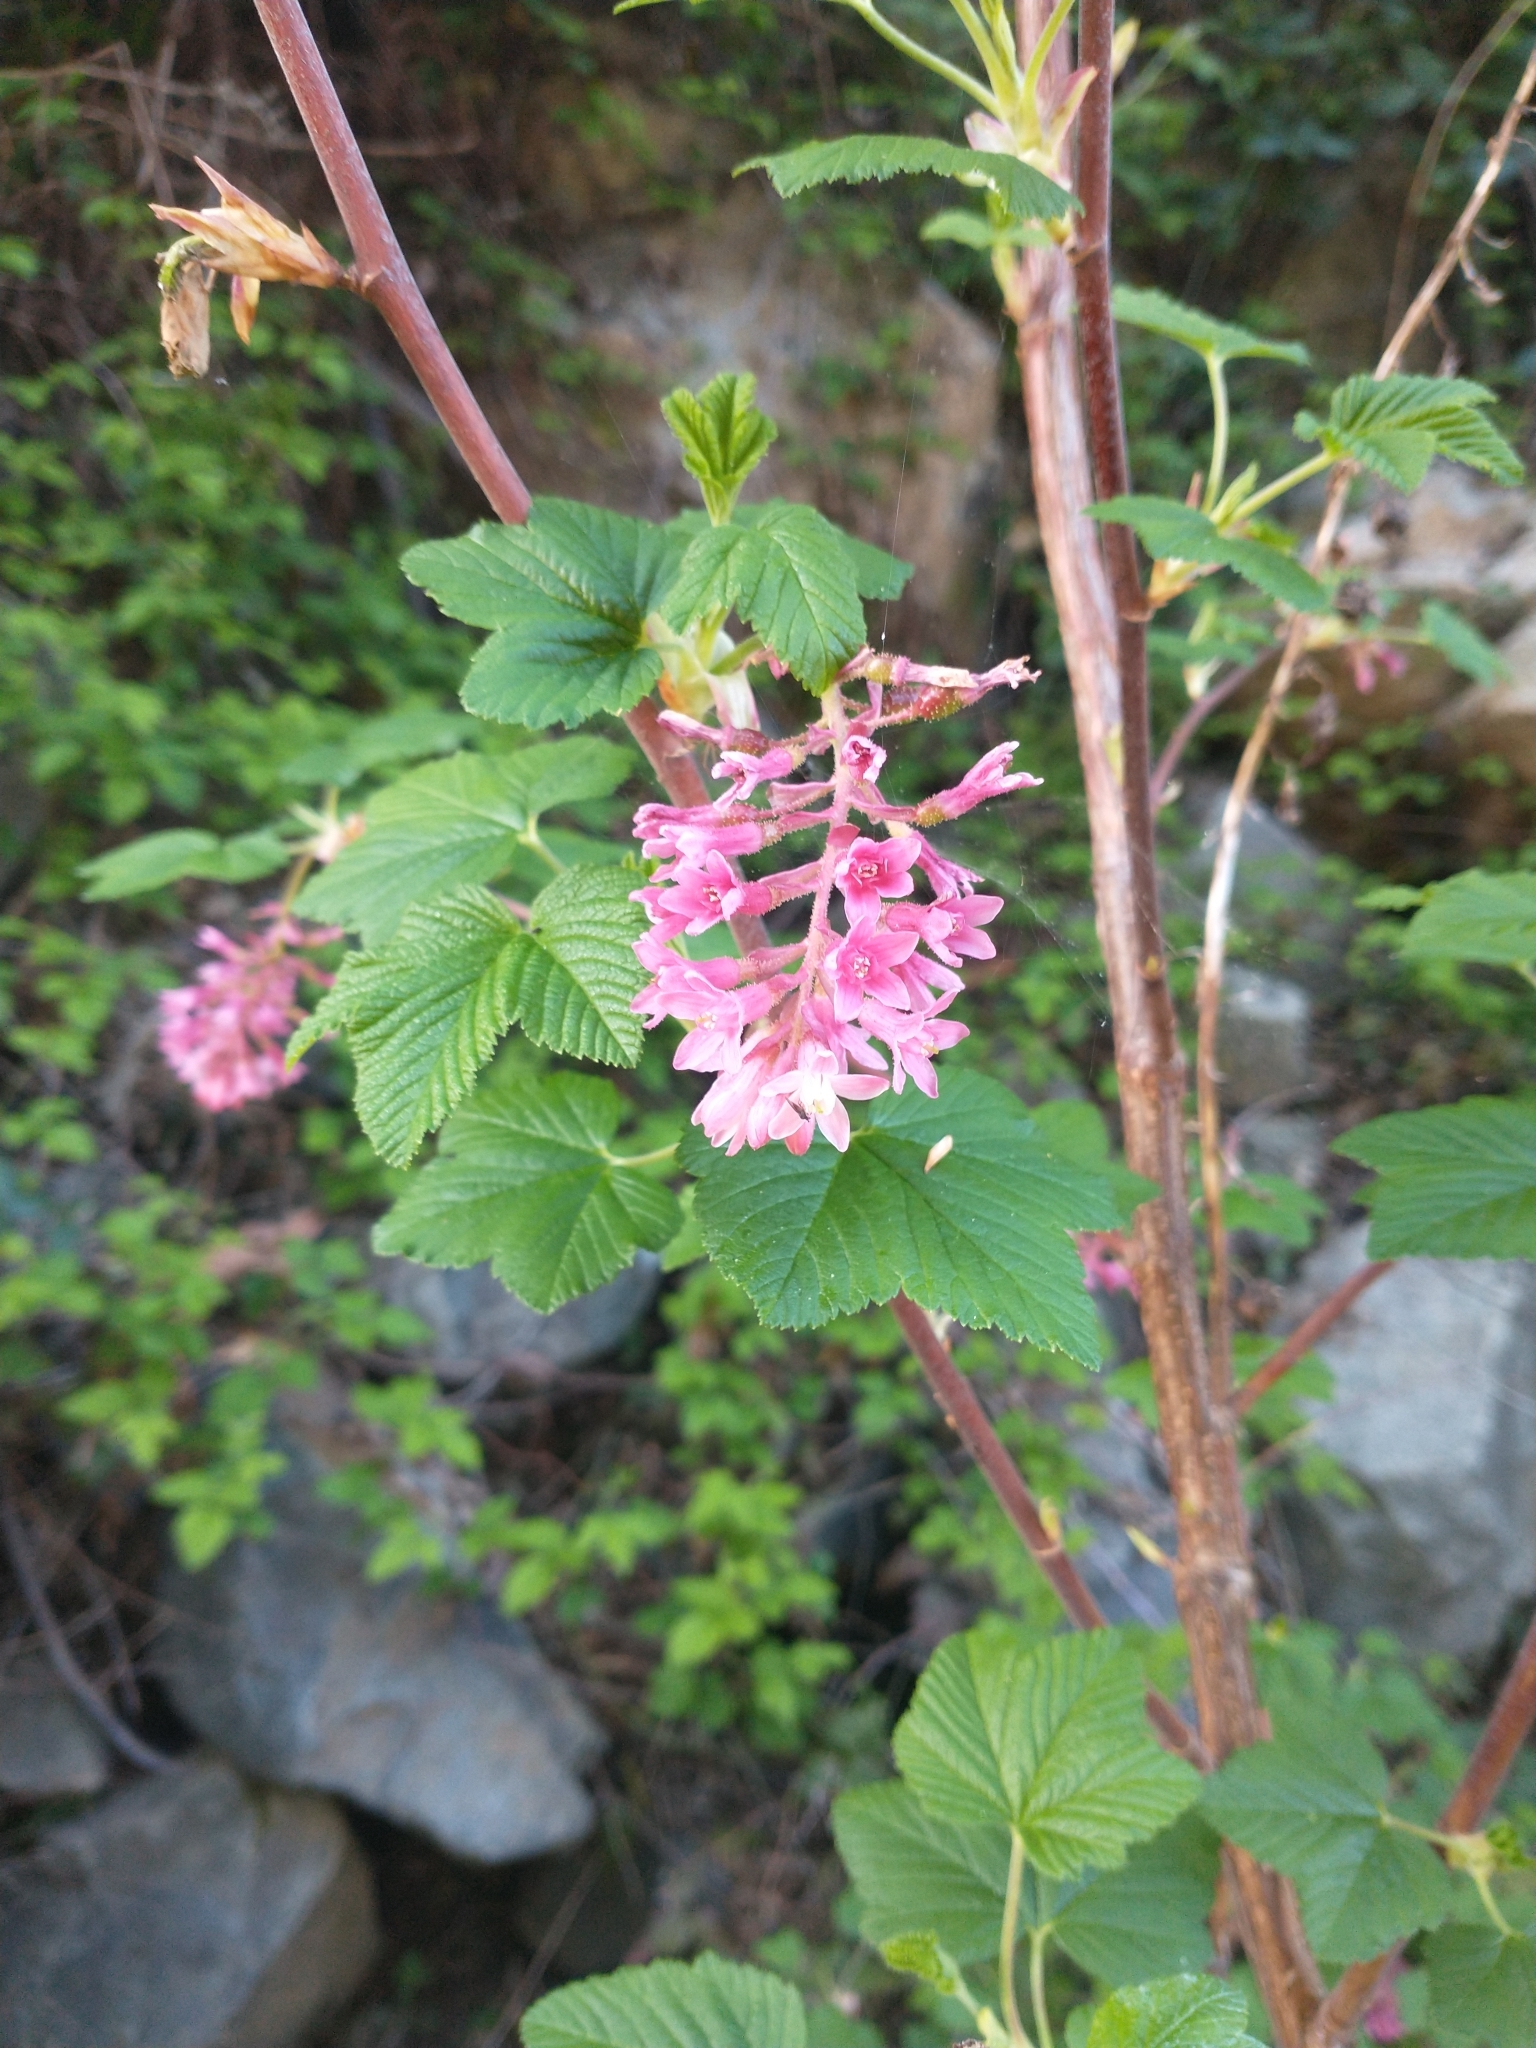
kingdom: Plantae
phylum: Tracheophyta
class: Magnoliopsida
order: Saxifragales
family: Grossulariaceae
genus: Ribes
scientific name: Ribes sanguineum
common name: Flowering currant
